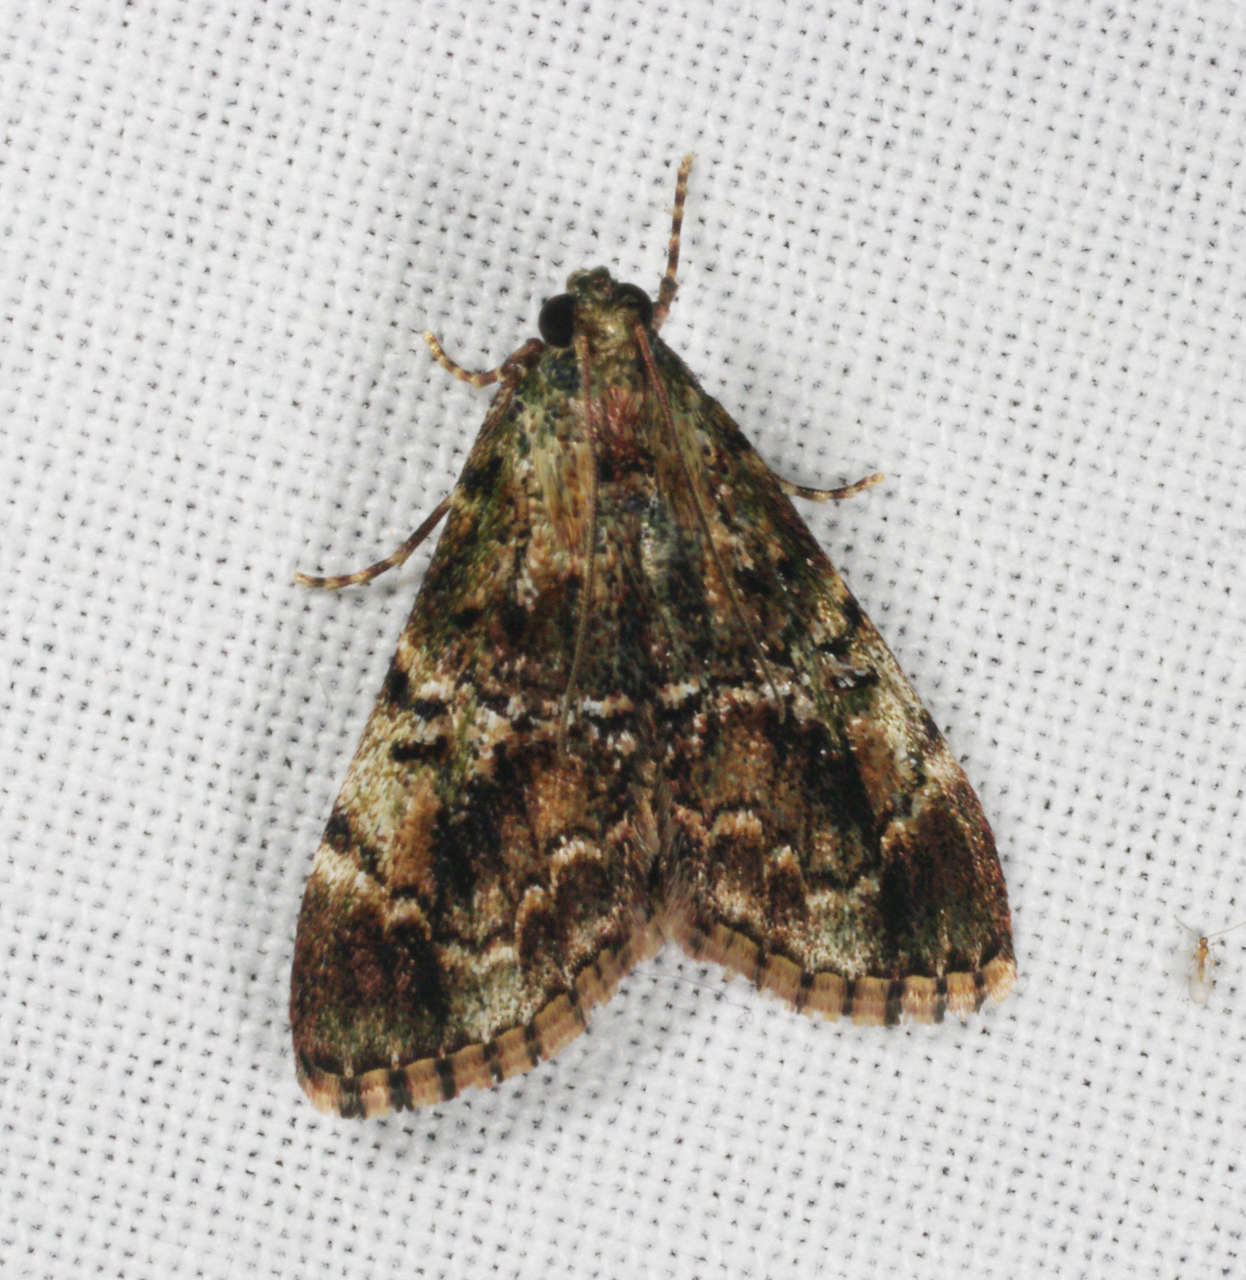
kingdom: Animalia
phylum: Arthropoda
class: Insecta
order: Lepidoptera
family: Pyralidae
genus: Orthaga
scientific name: Orthaga thyrisalis
